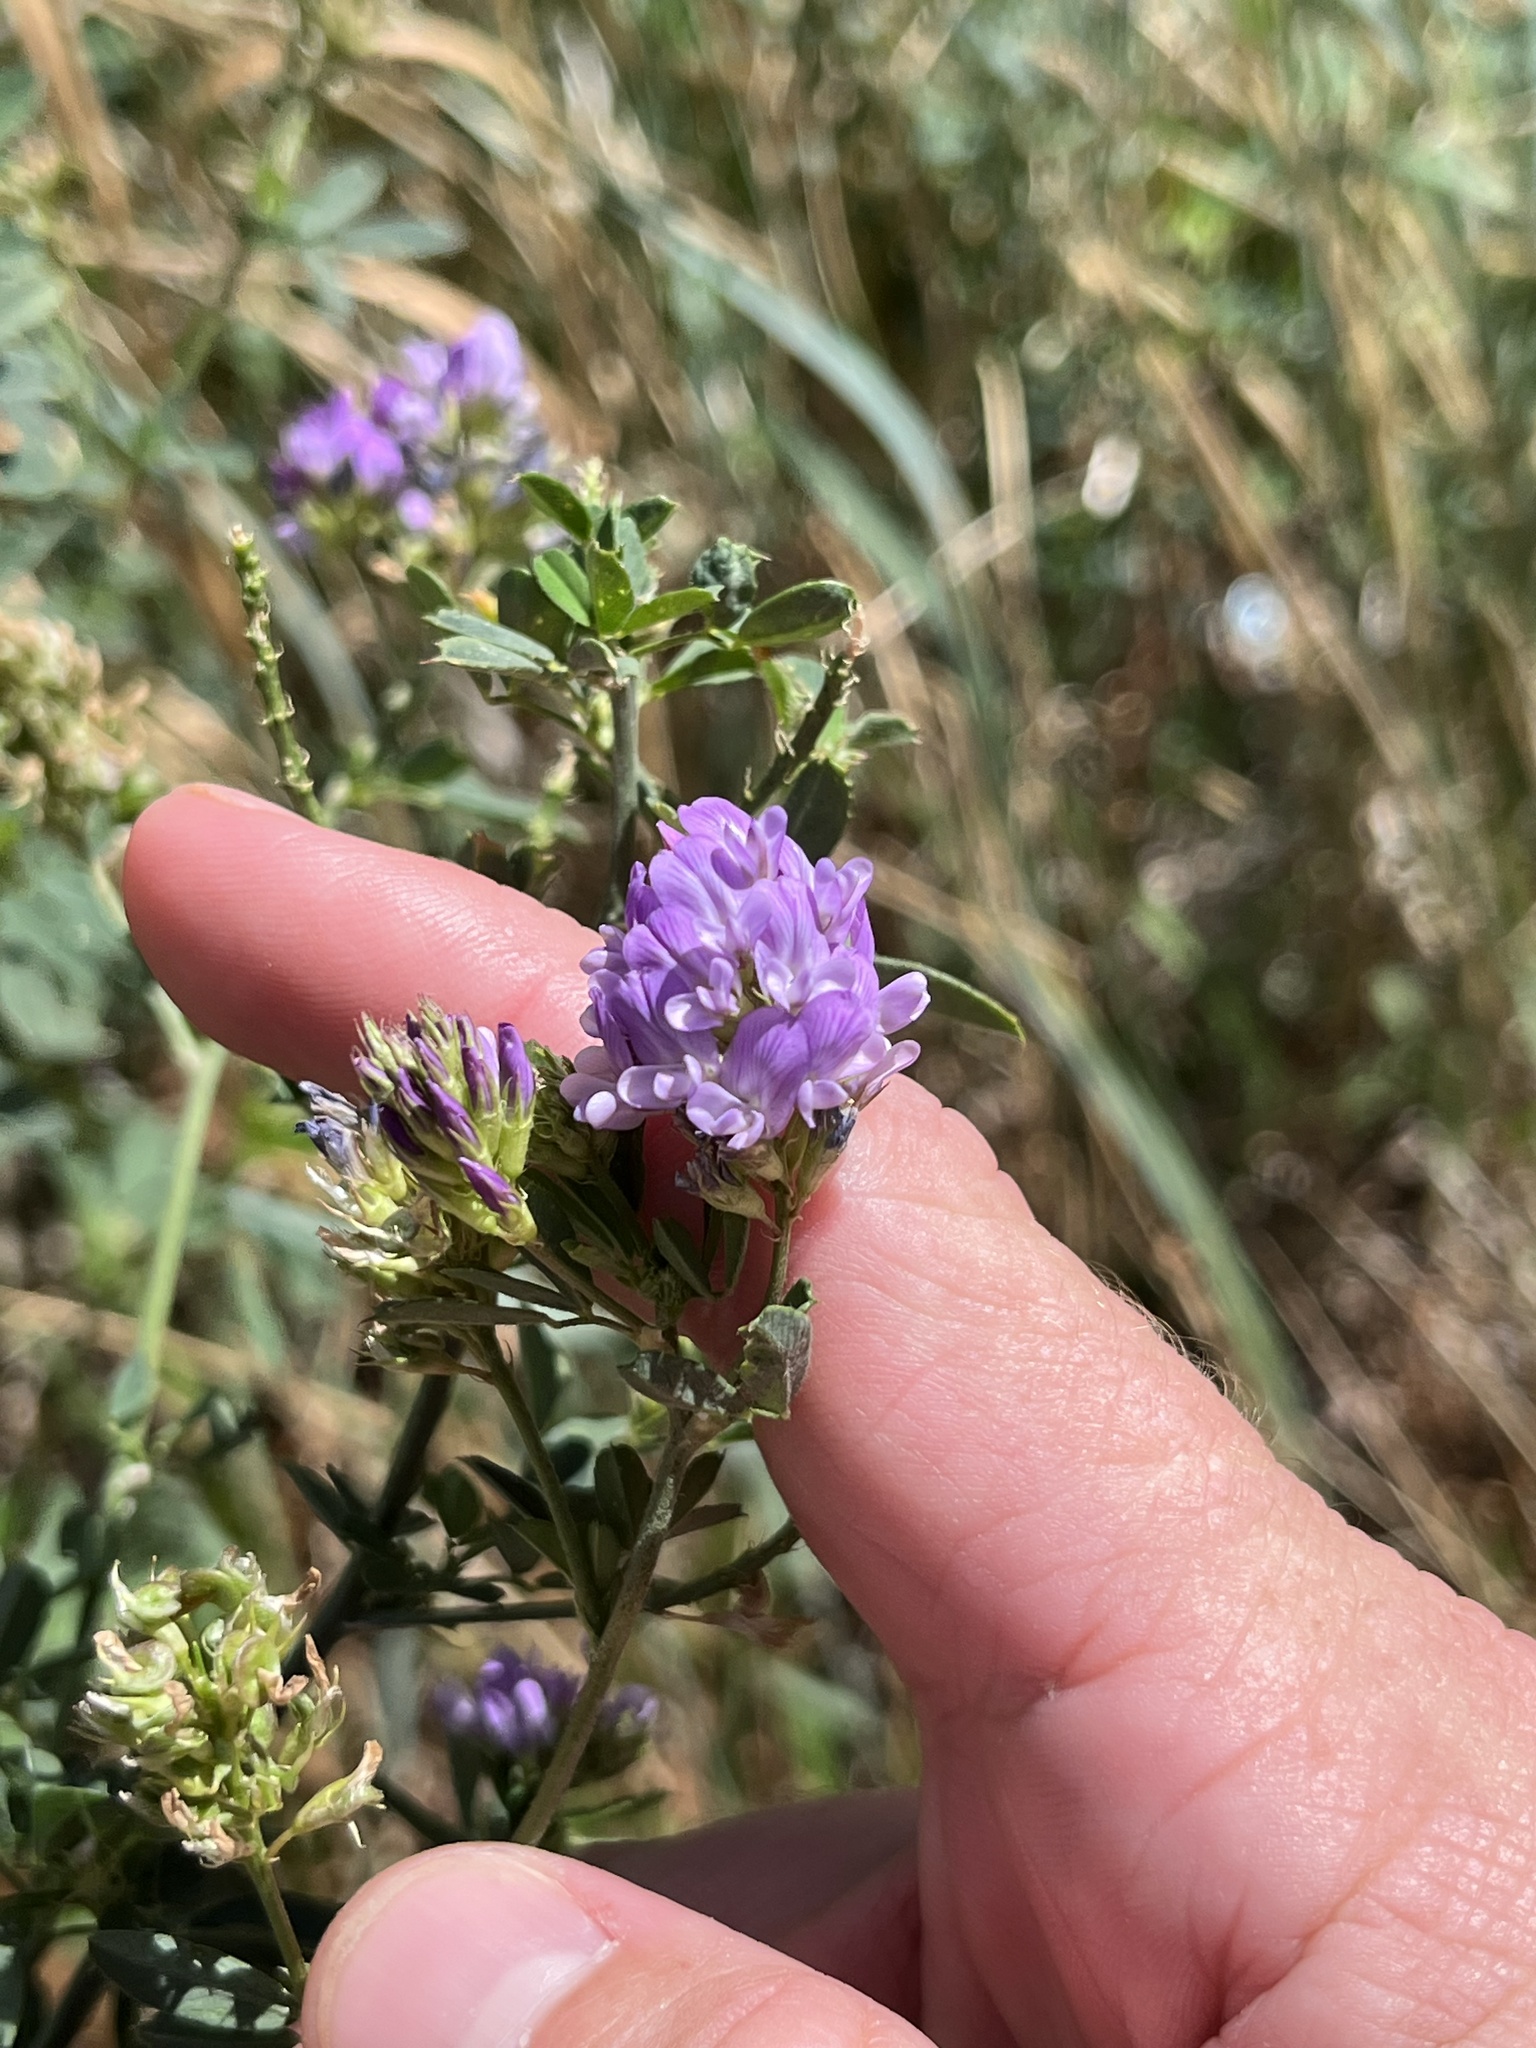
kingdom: Plantae
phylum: Tracheophyta
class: Magnoliopsida
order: Fabales
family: Fabaceae
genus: Medicago
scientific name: Medicago sativa
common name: Alfalfa
